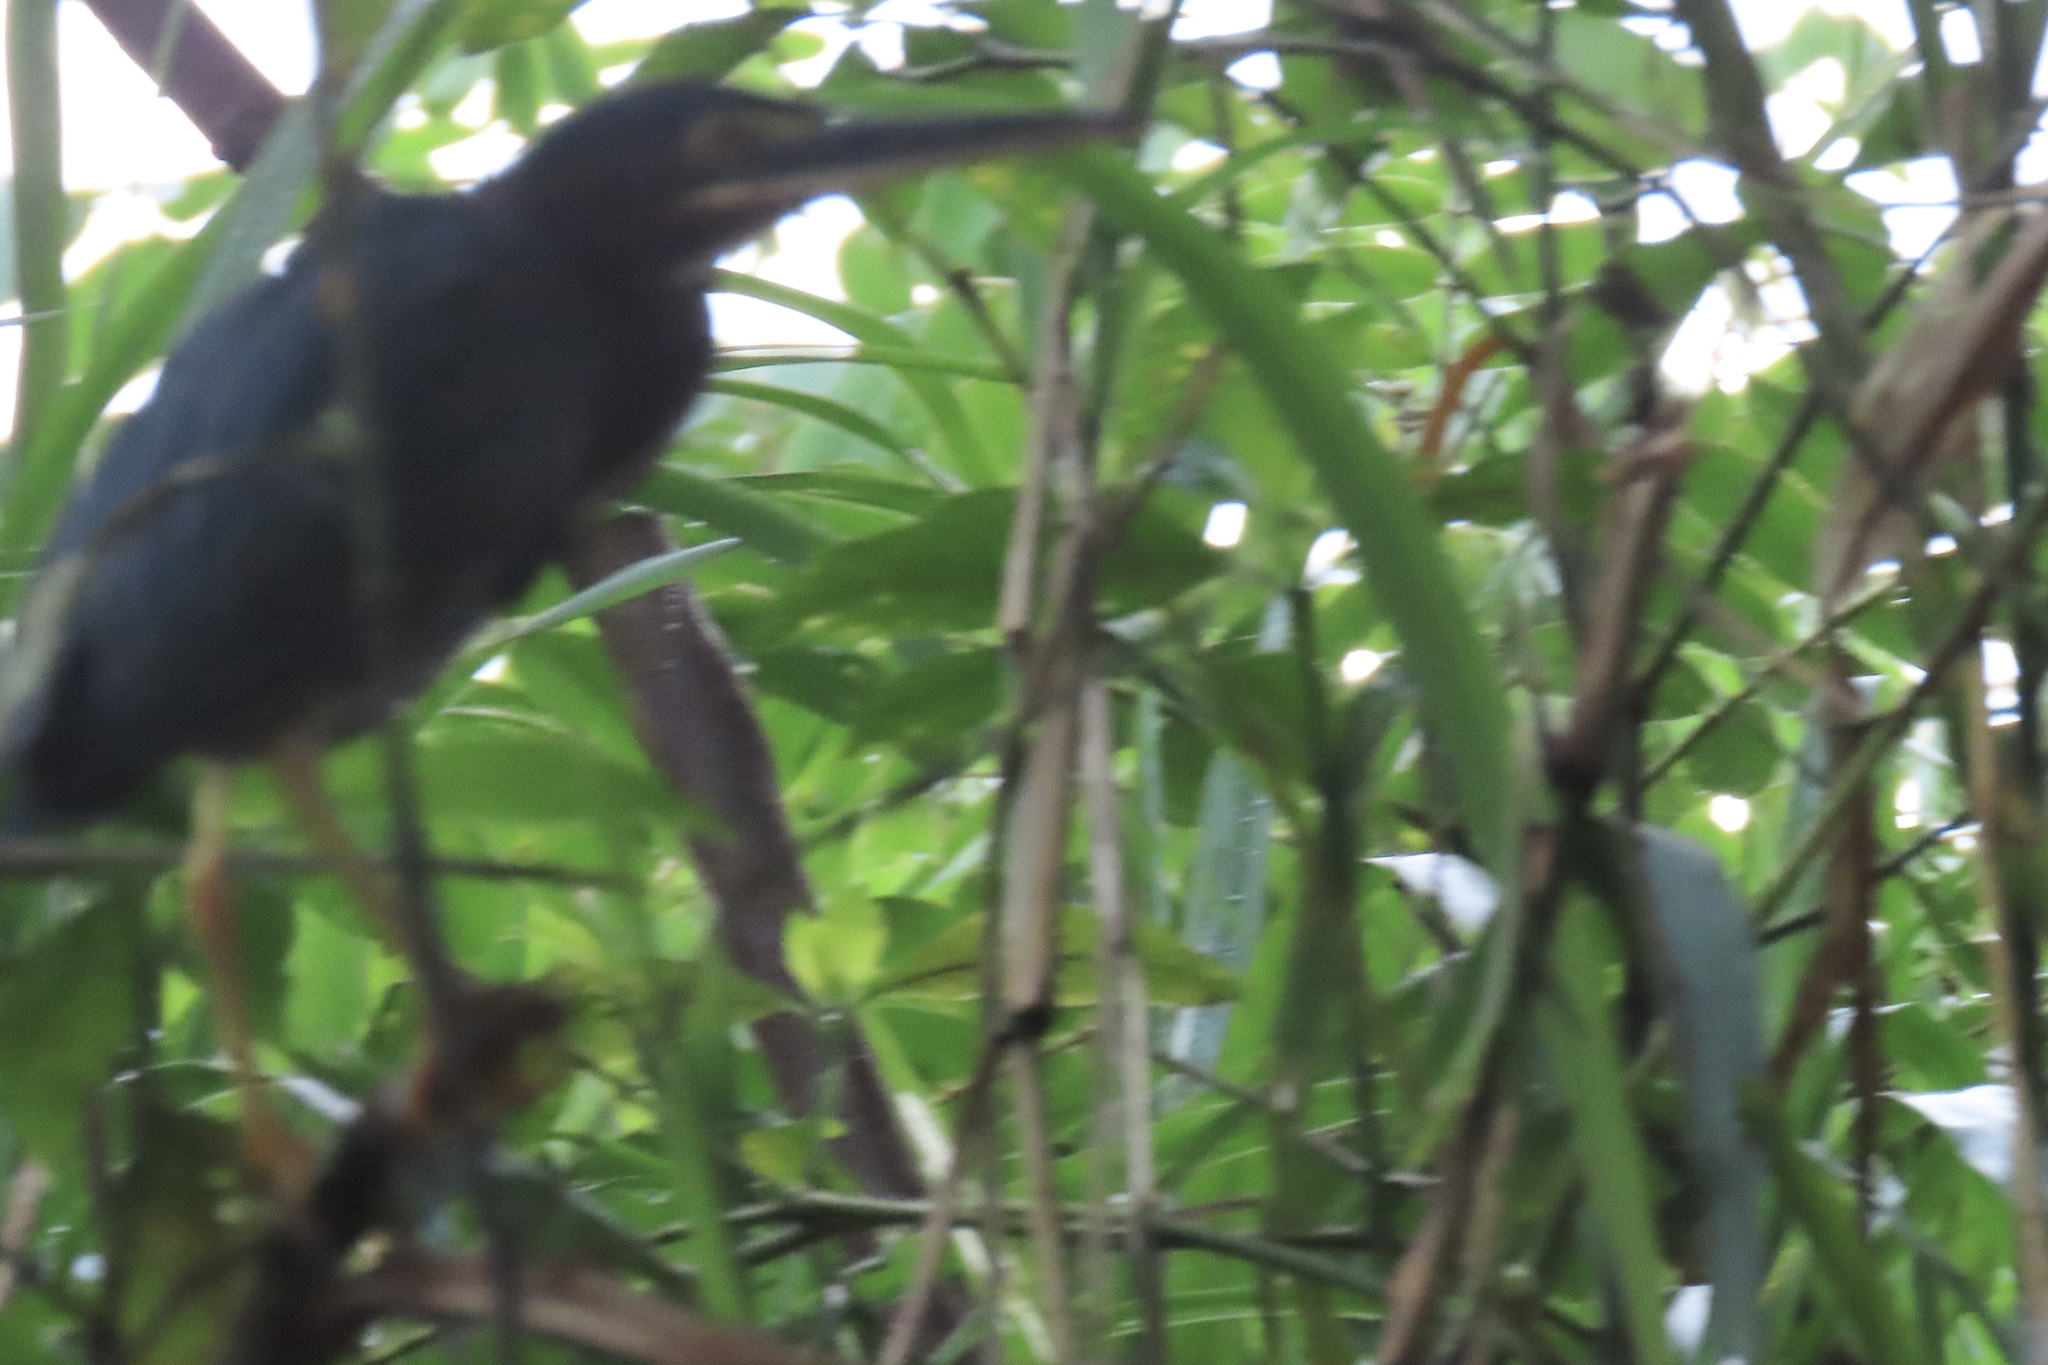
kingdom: Animalia
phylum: Chordata
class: Aves
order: Pelecaniformes
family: Ardeidae
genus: Butorides
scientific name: Butorides virescens
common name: Green heron
